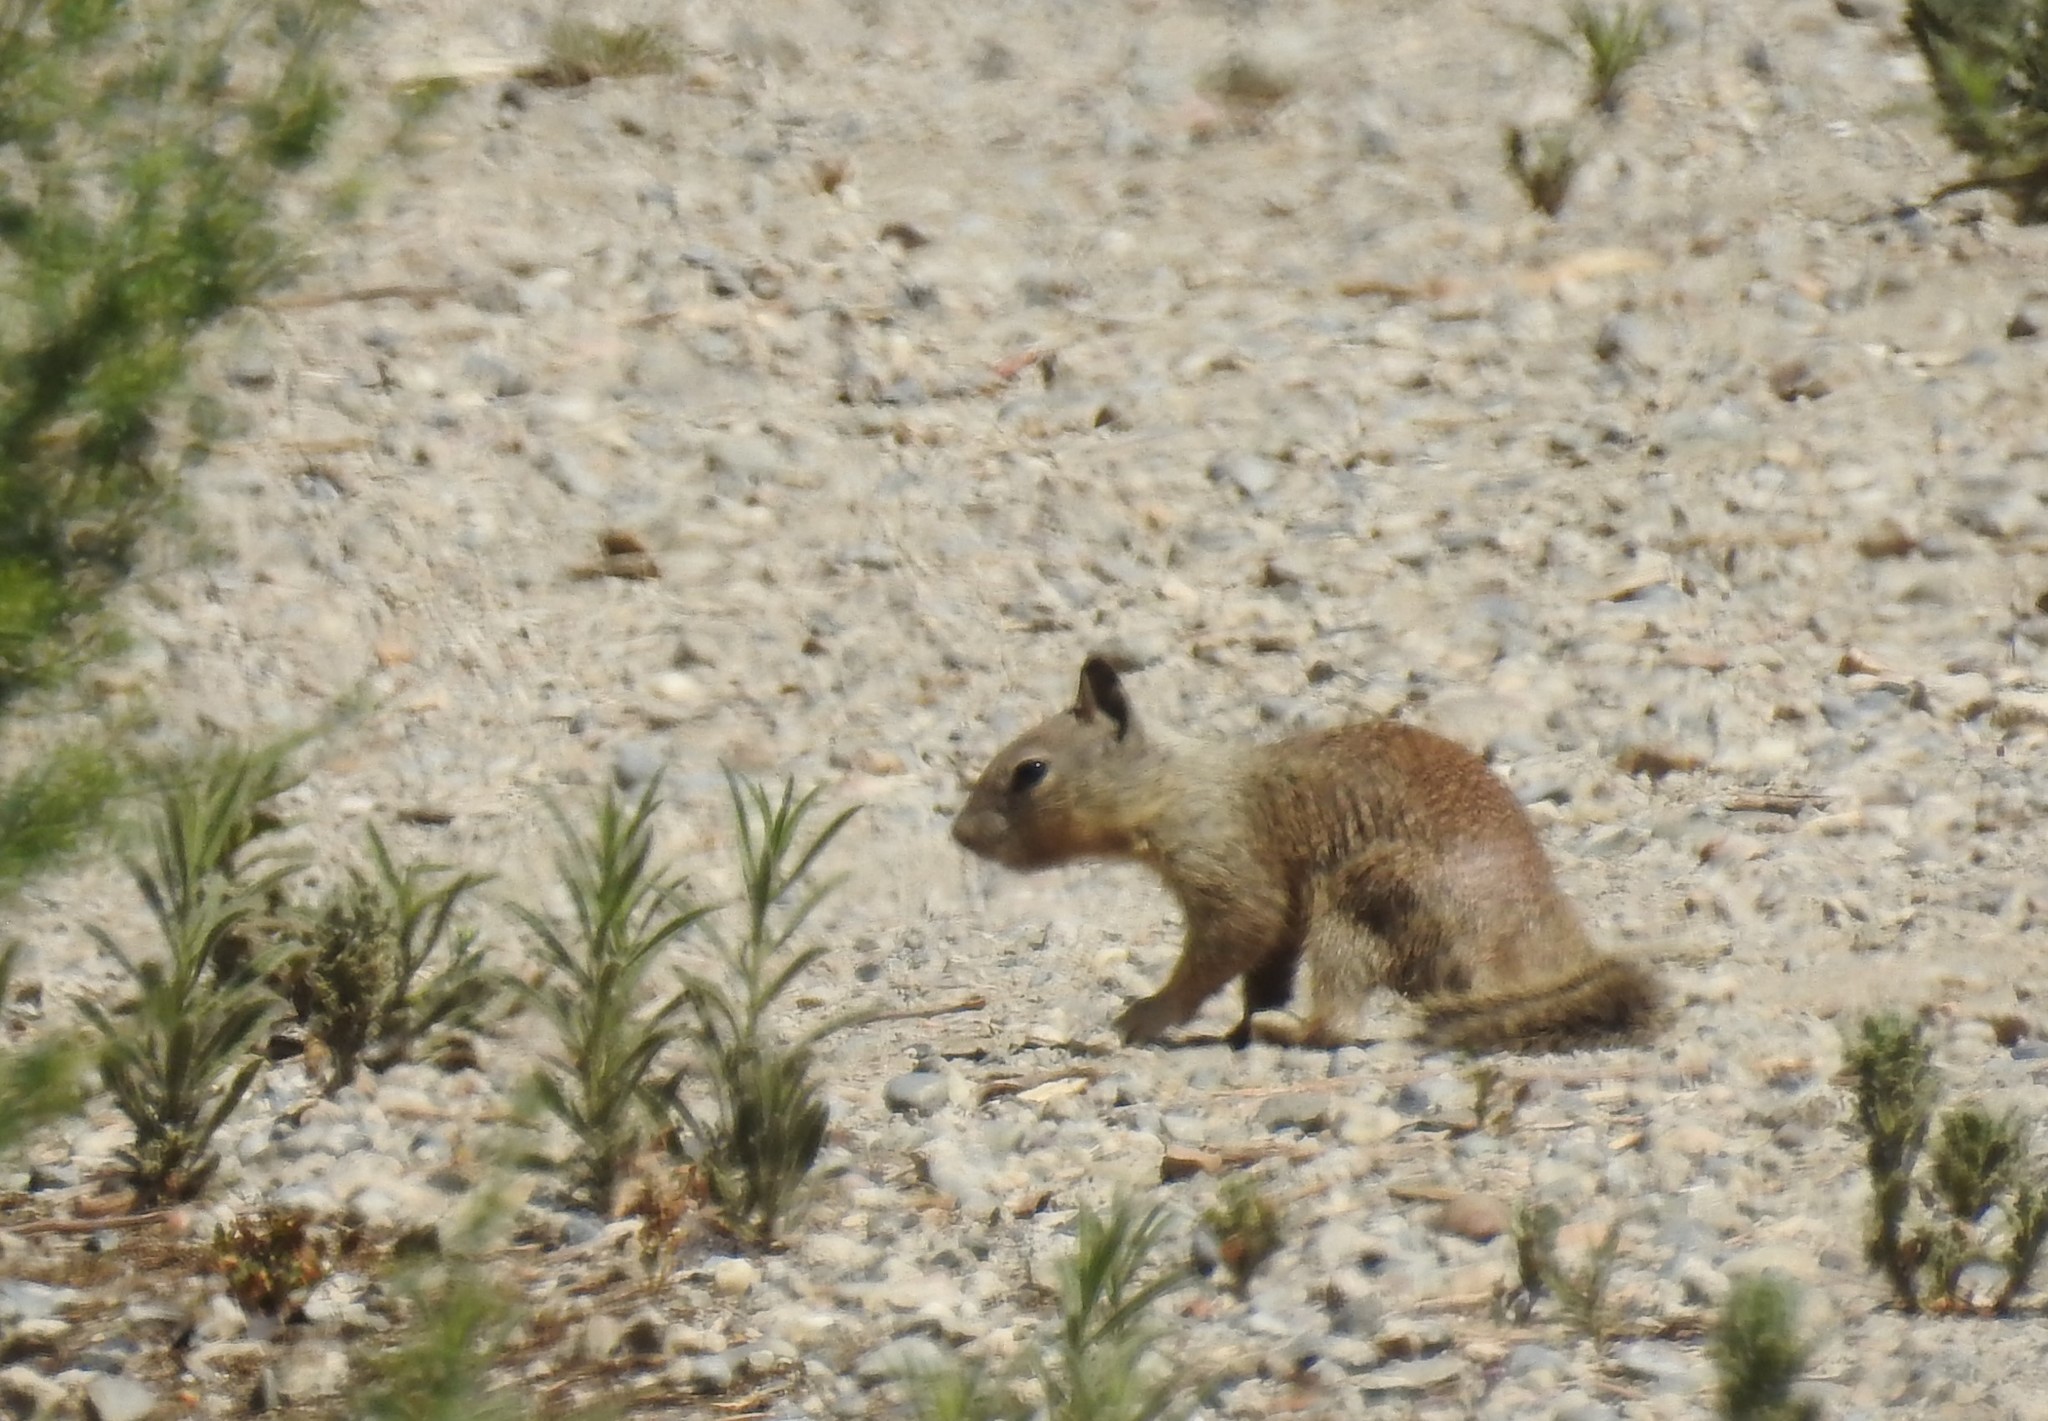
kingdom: Animalia
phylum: Chordata
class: Mammalia
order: Rodentia
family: Sciuridae
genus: Otospermophilus
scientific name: Otospermophilus beecheyi
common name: California ground squirrel
